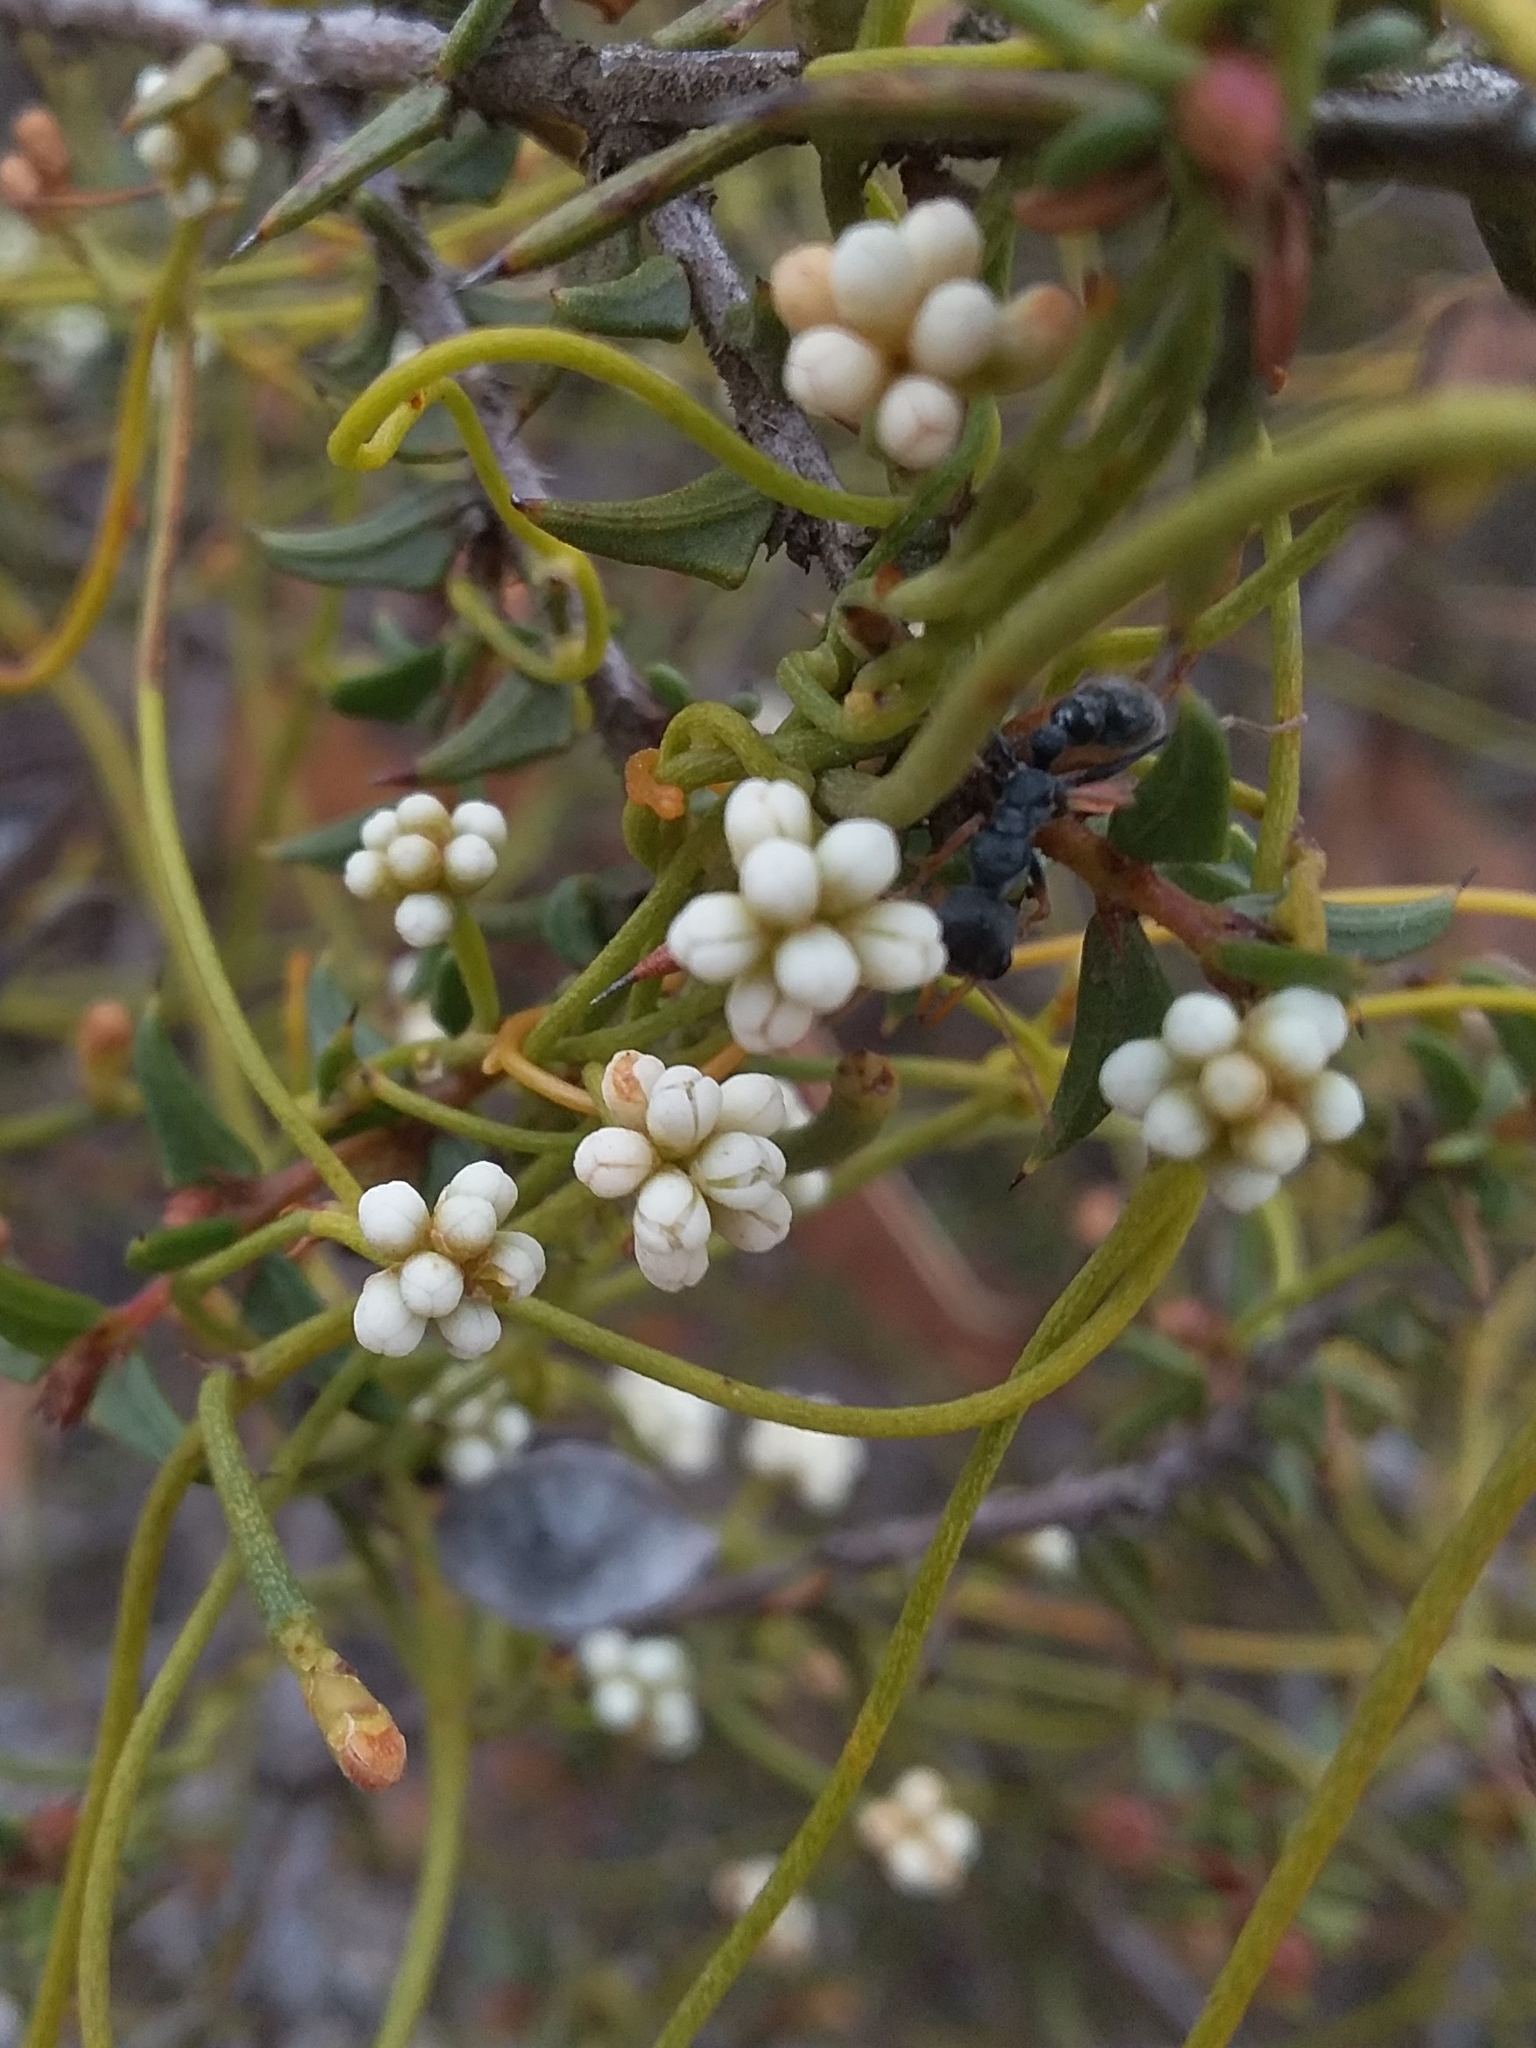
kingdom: Plantae
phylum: Tracheophyta
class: Magnoliopsida
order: Laurales
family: Lauraceae
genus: Cassytha
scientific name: Cassytha glabella
